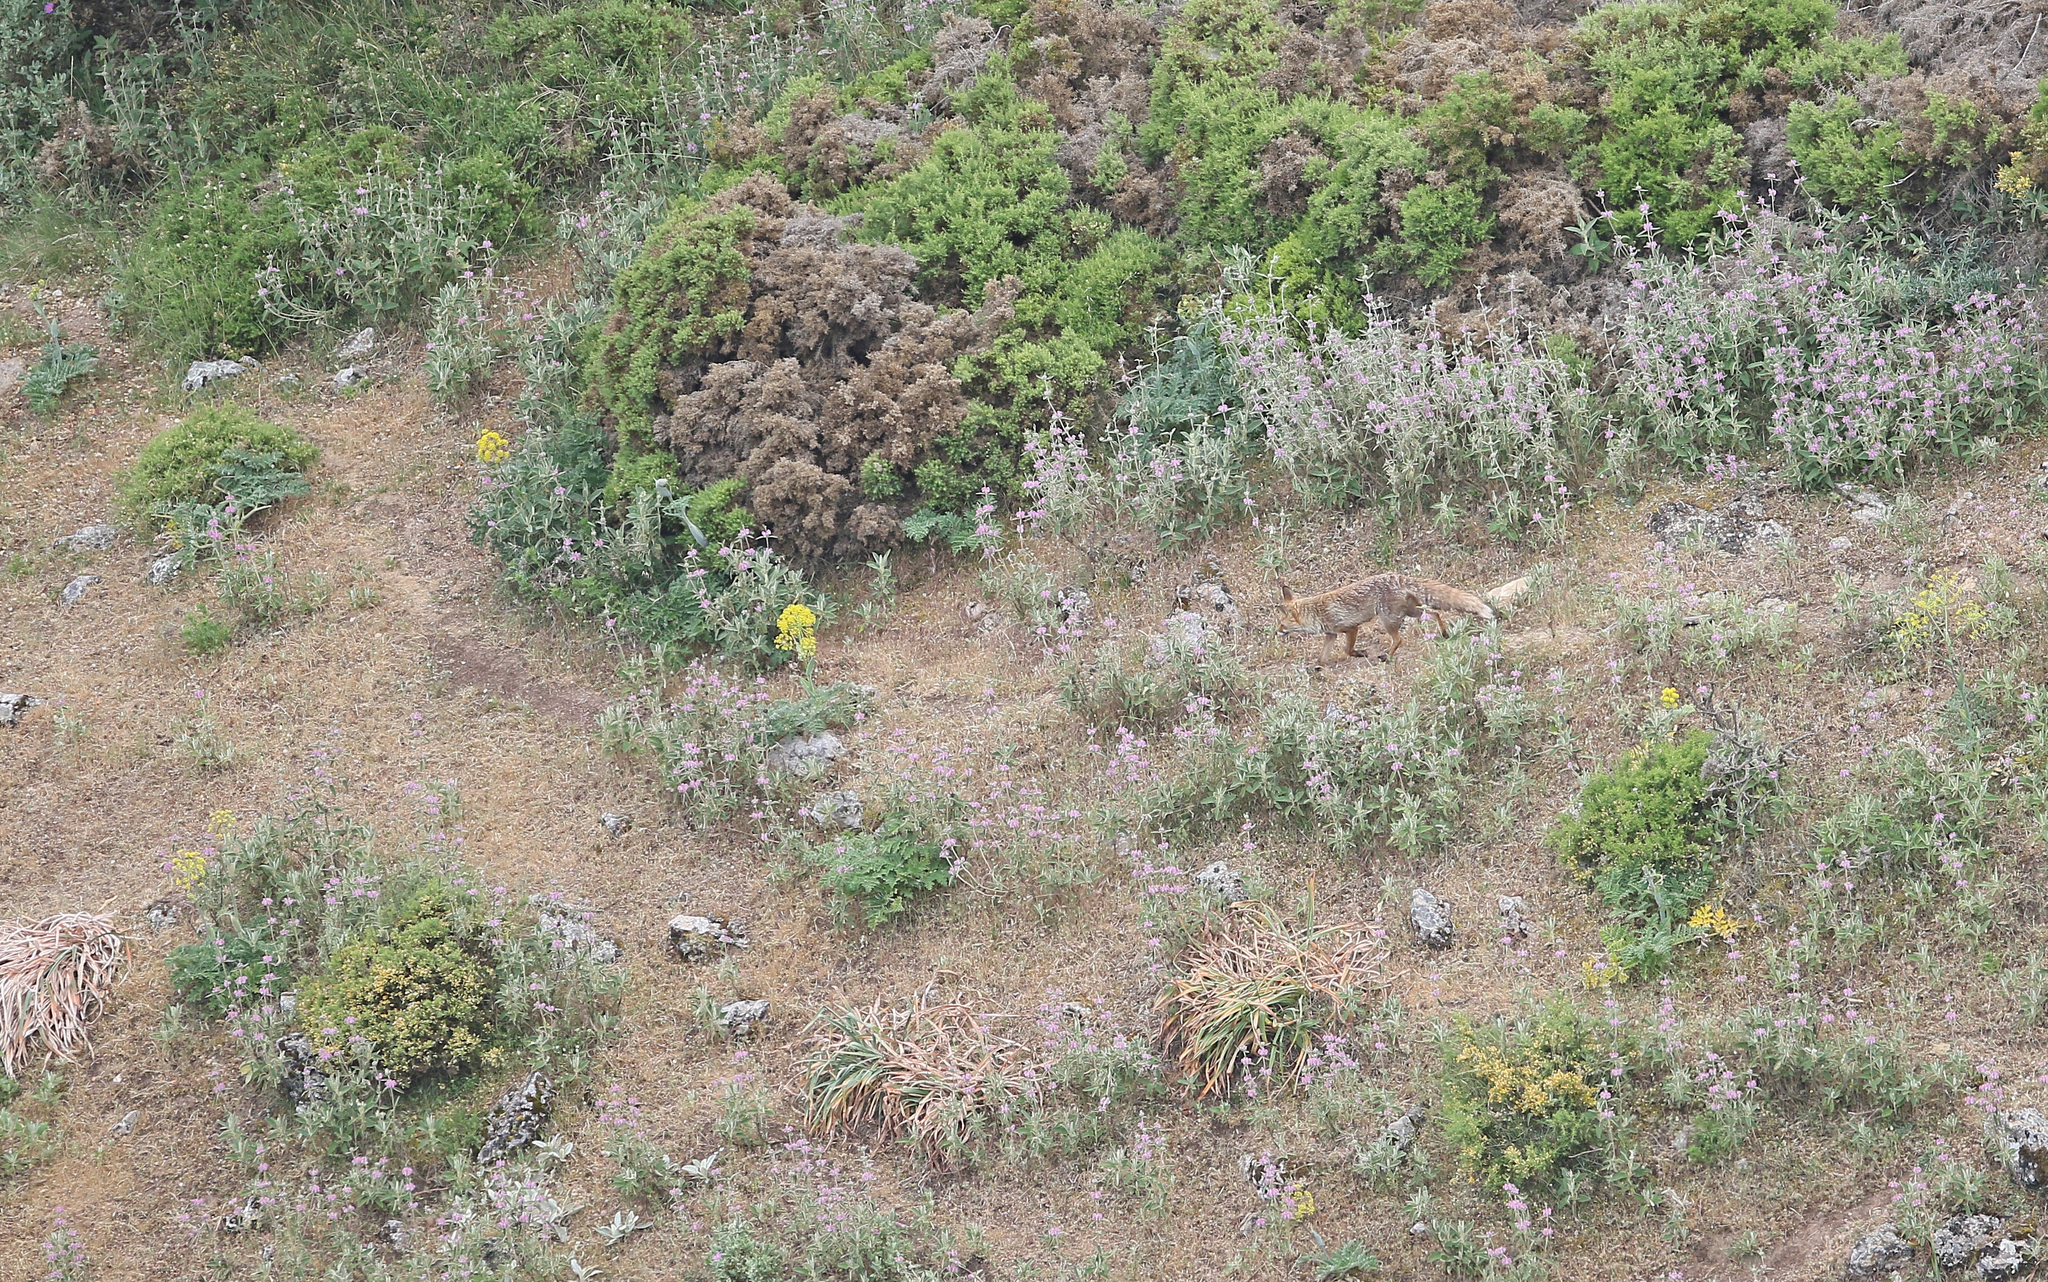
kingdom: Animalia
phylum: Chordata
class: Mammalia
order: Carnivora
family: Canidae
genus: Vulpes
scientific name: Vulpes vulpes
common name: Red fox
